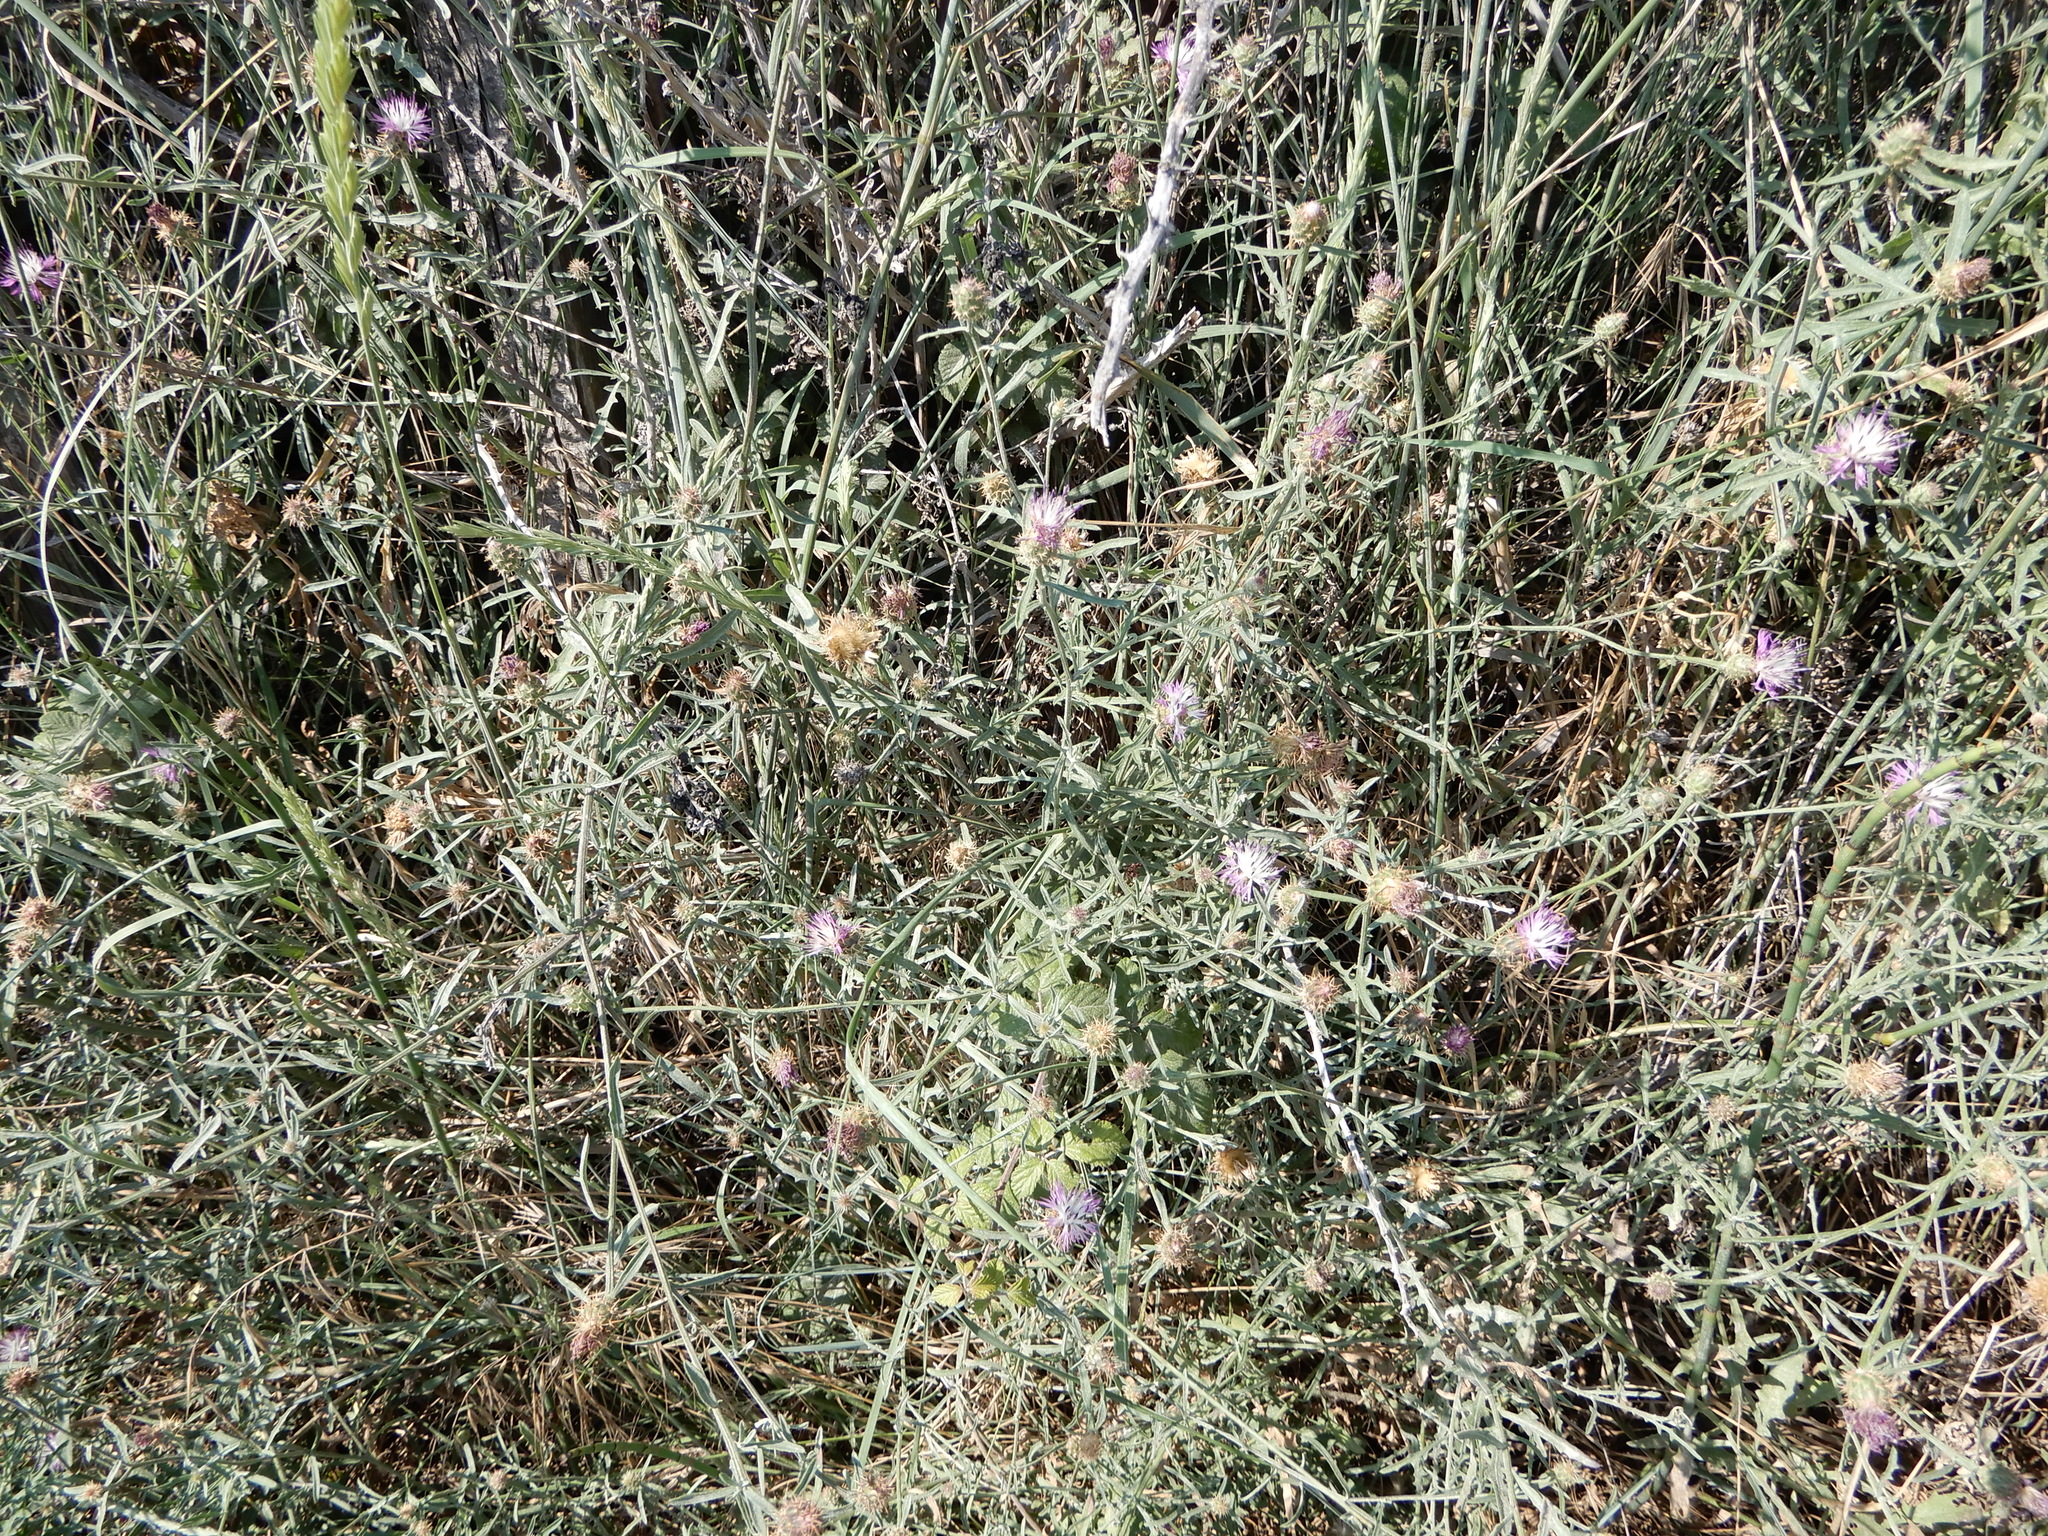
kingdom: Plantae
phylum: Tracheophyta
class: Magnoliopsida
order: Asterales
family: Asteraceae
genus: Centaurea
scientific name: Centaurea aspera
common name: Rough star-thistle
